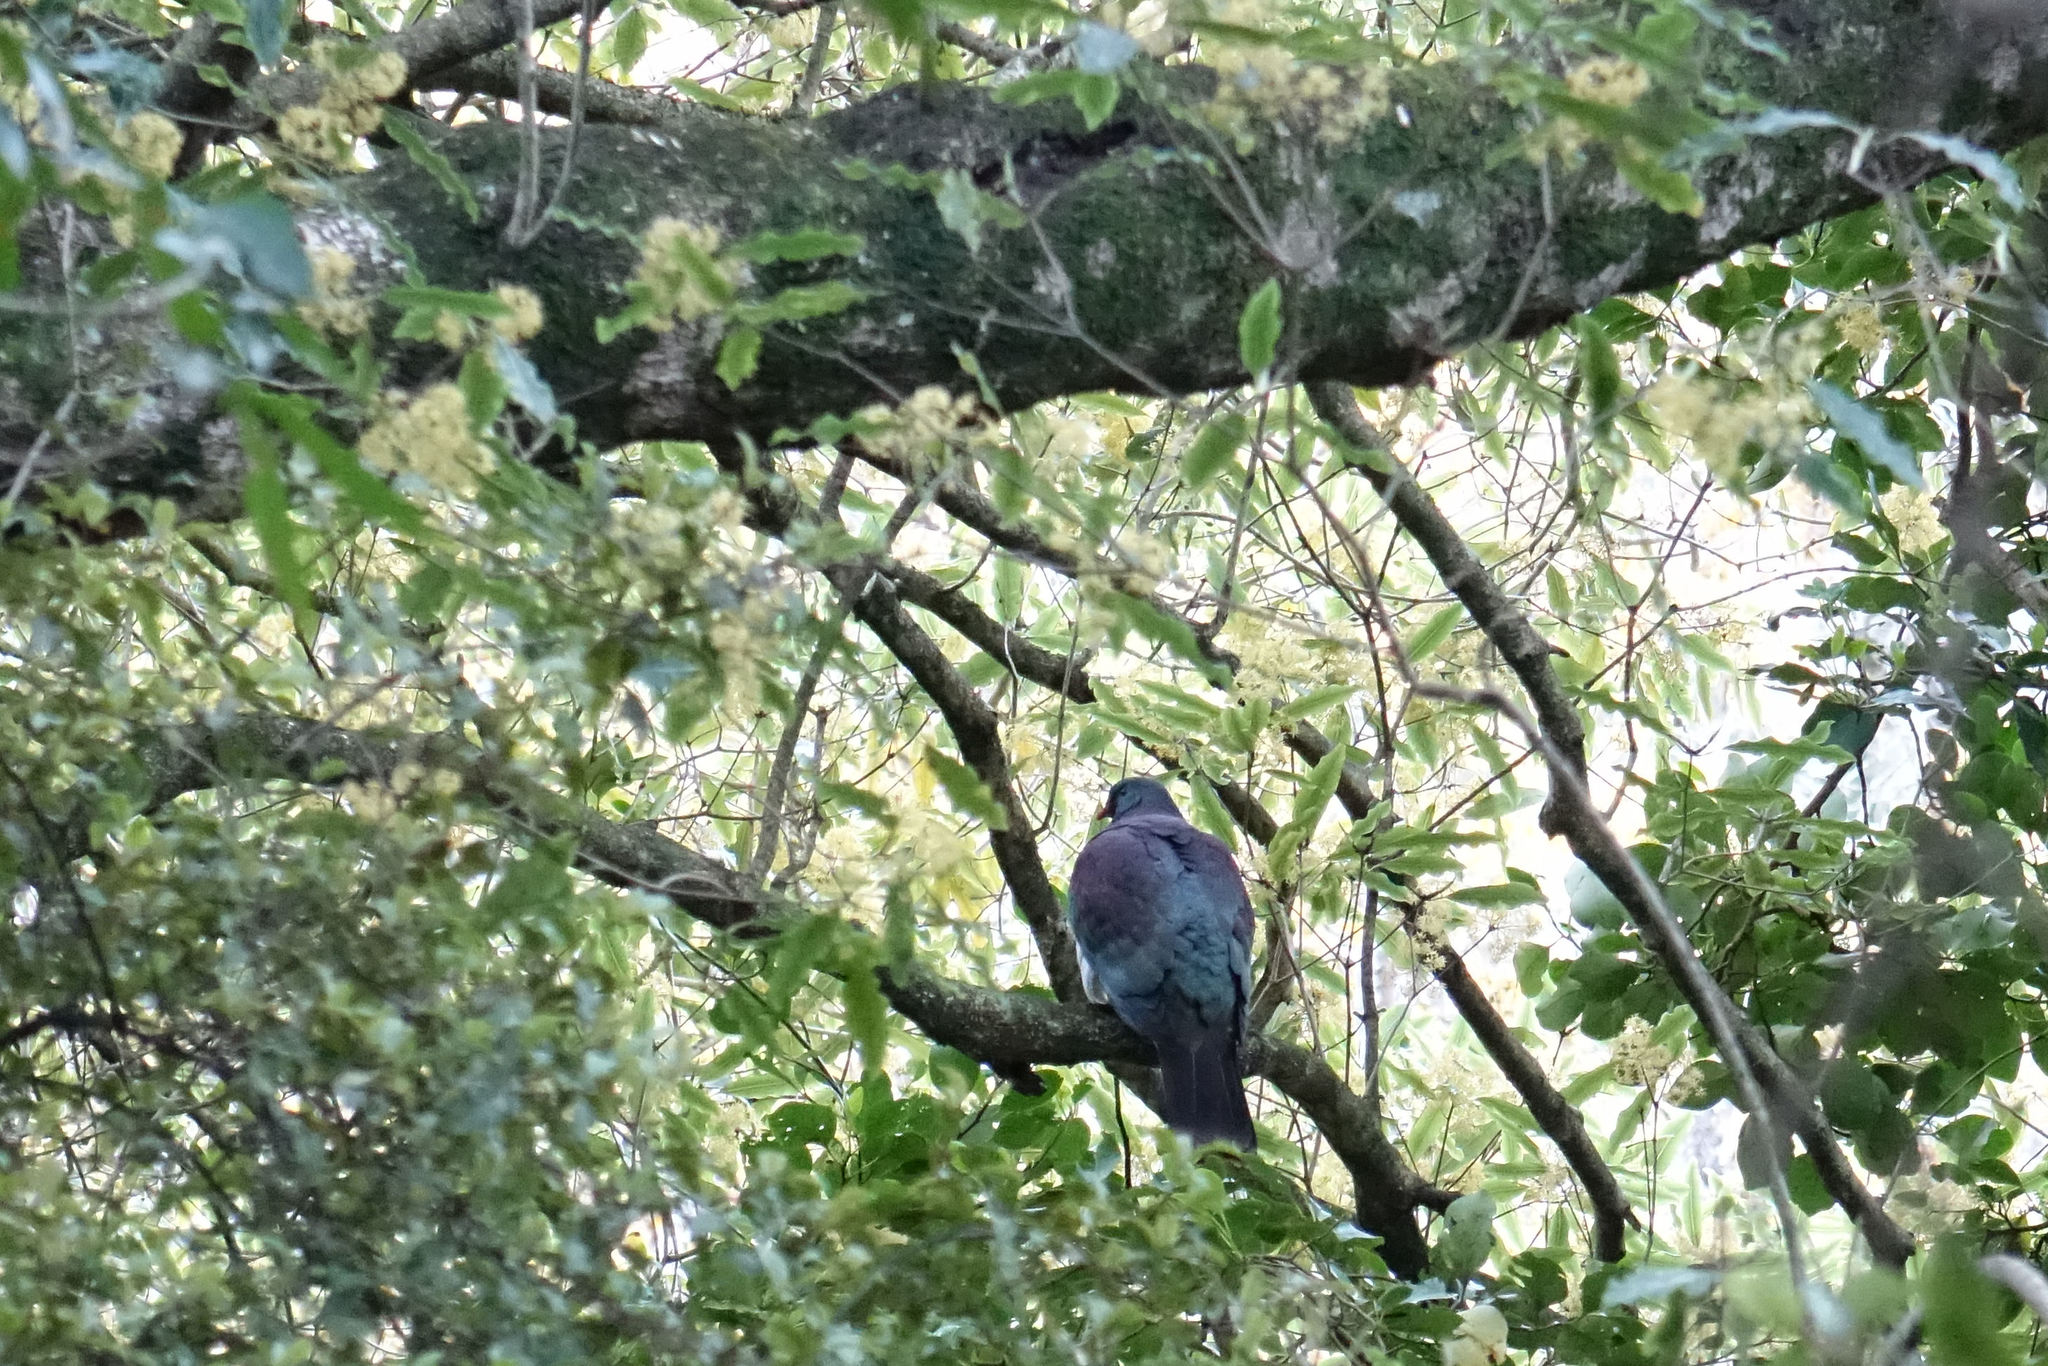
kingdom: Animalia
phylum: Chordata
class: Aves
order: Columbiformes
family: Columbidae
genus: Hemiphaga
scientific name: Hemiphaga novaeseelandiae
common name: New zealand pigeon
